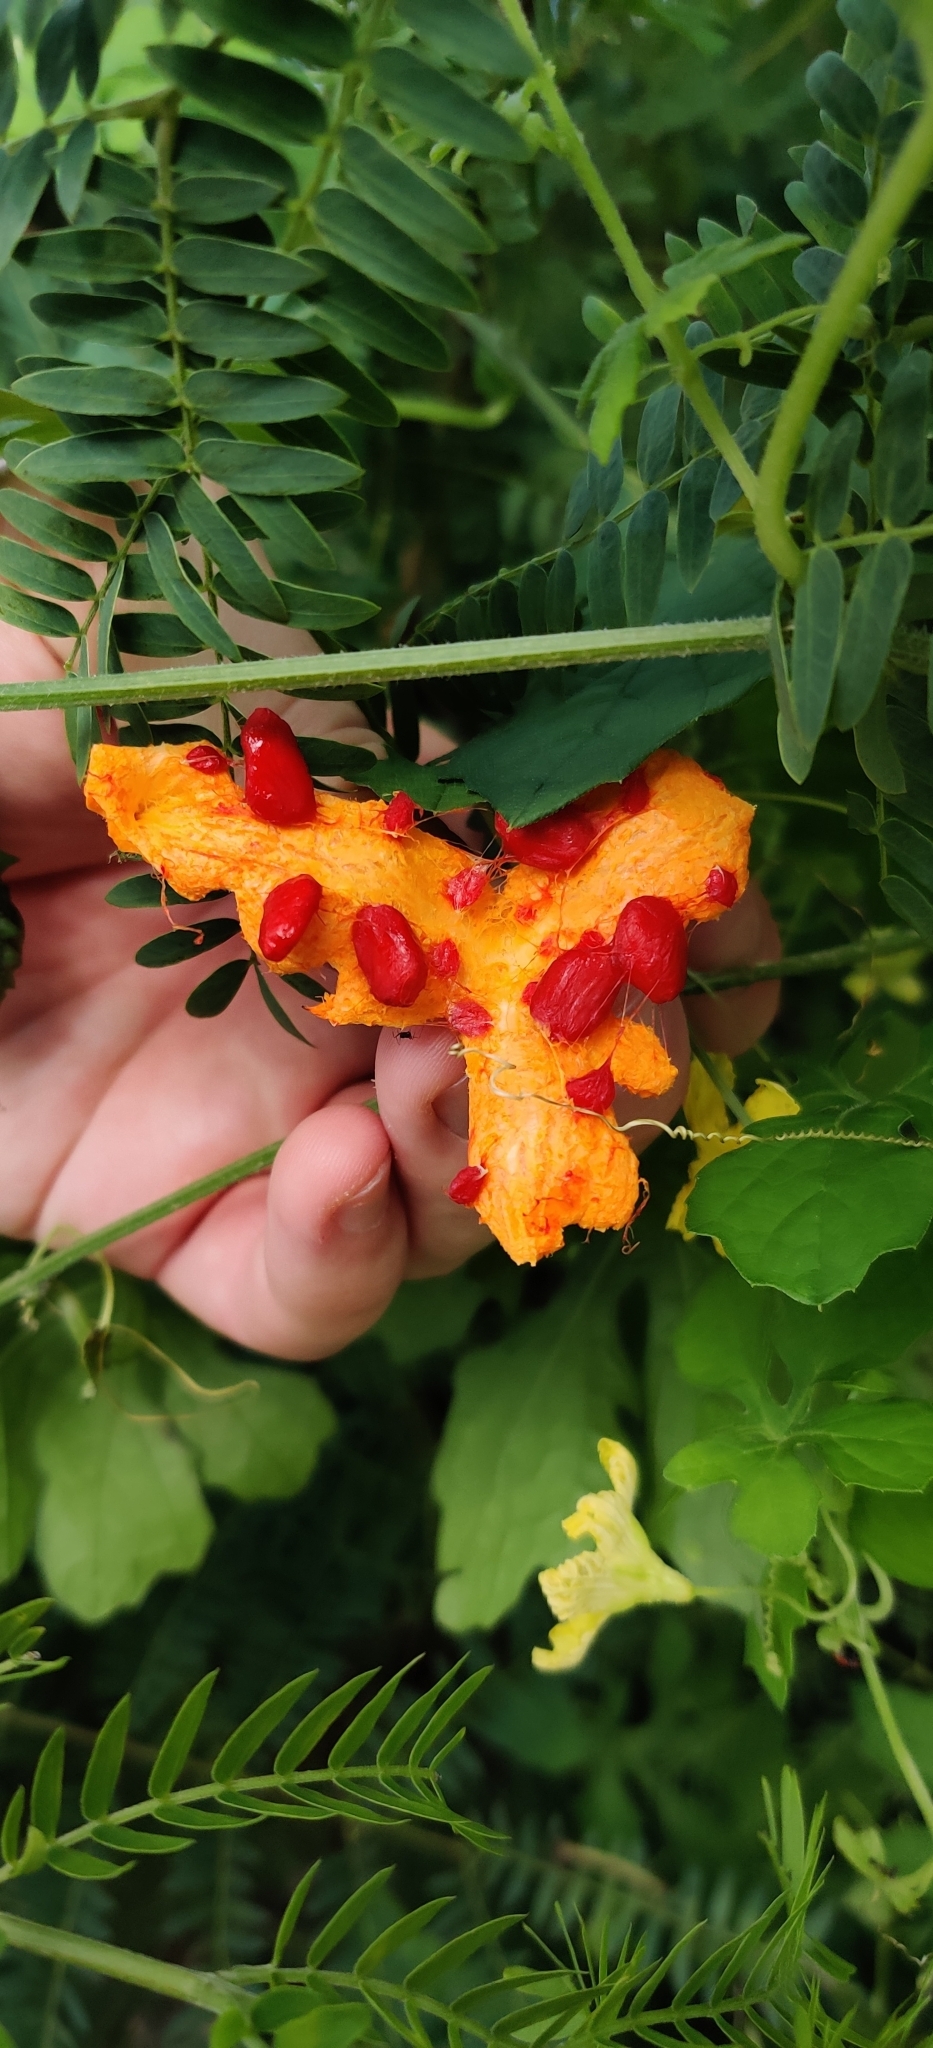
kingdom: Plantae
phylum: Tracheophyta
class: Magnoliopsida
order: Cucurbitales
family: Cucurbitaceae
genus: Momordica
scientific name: Momordica charantia
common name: Balsampear
